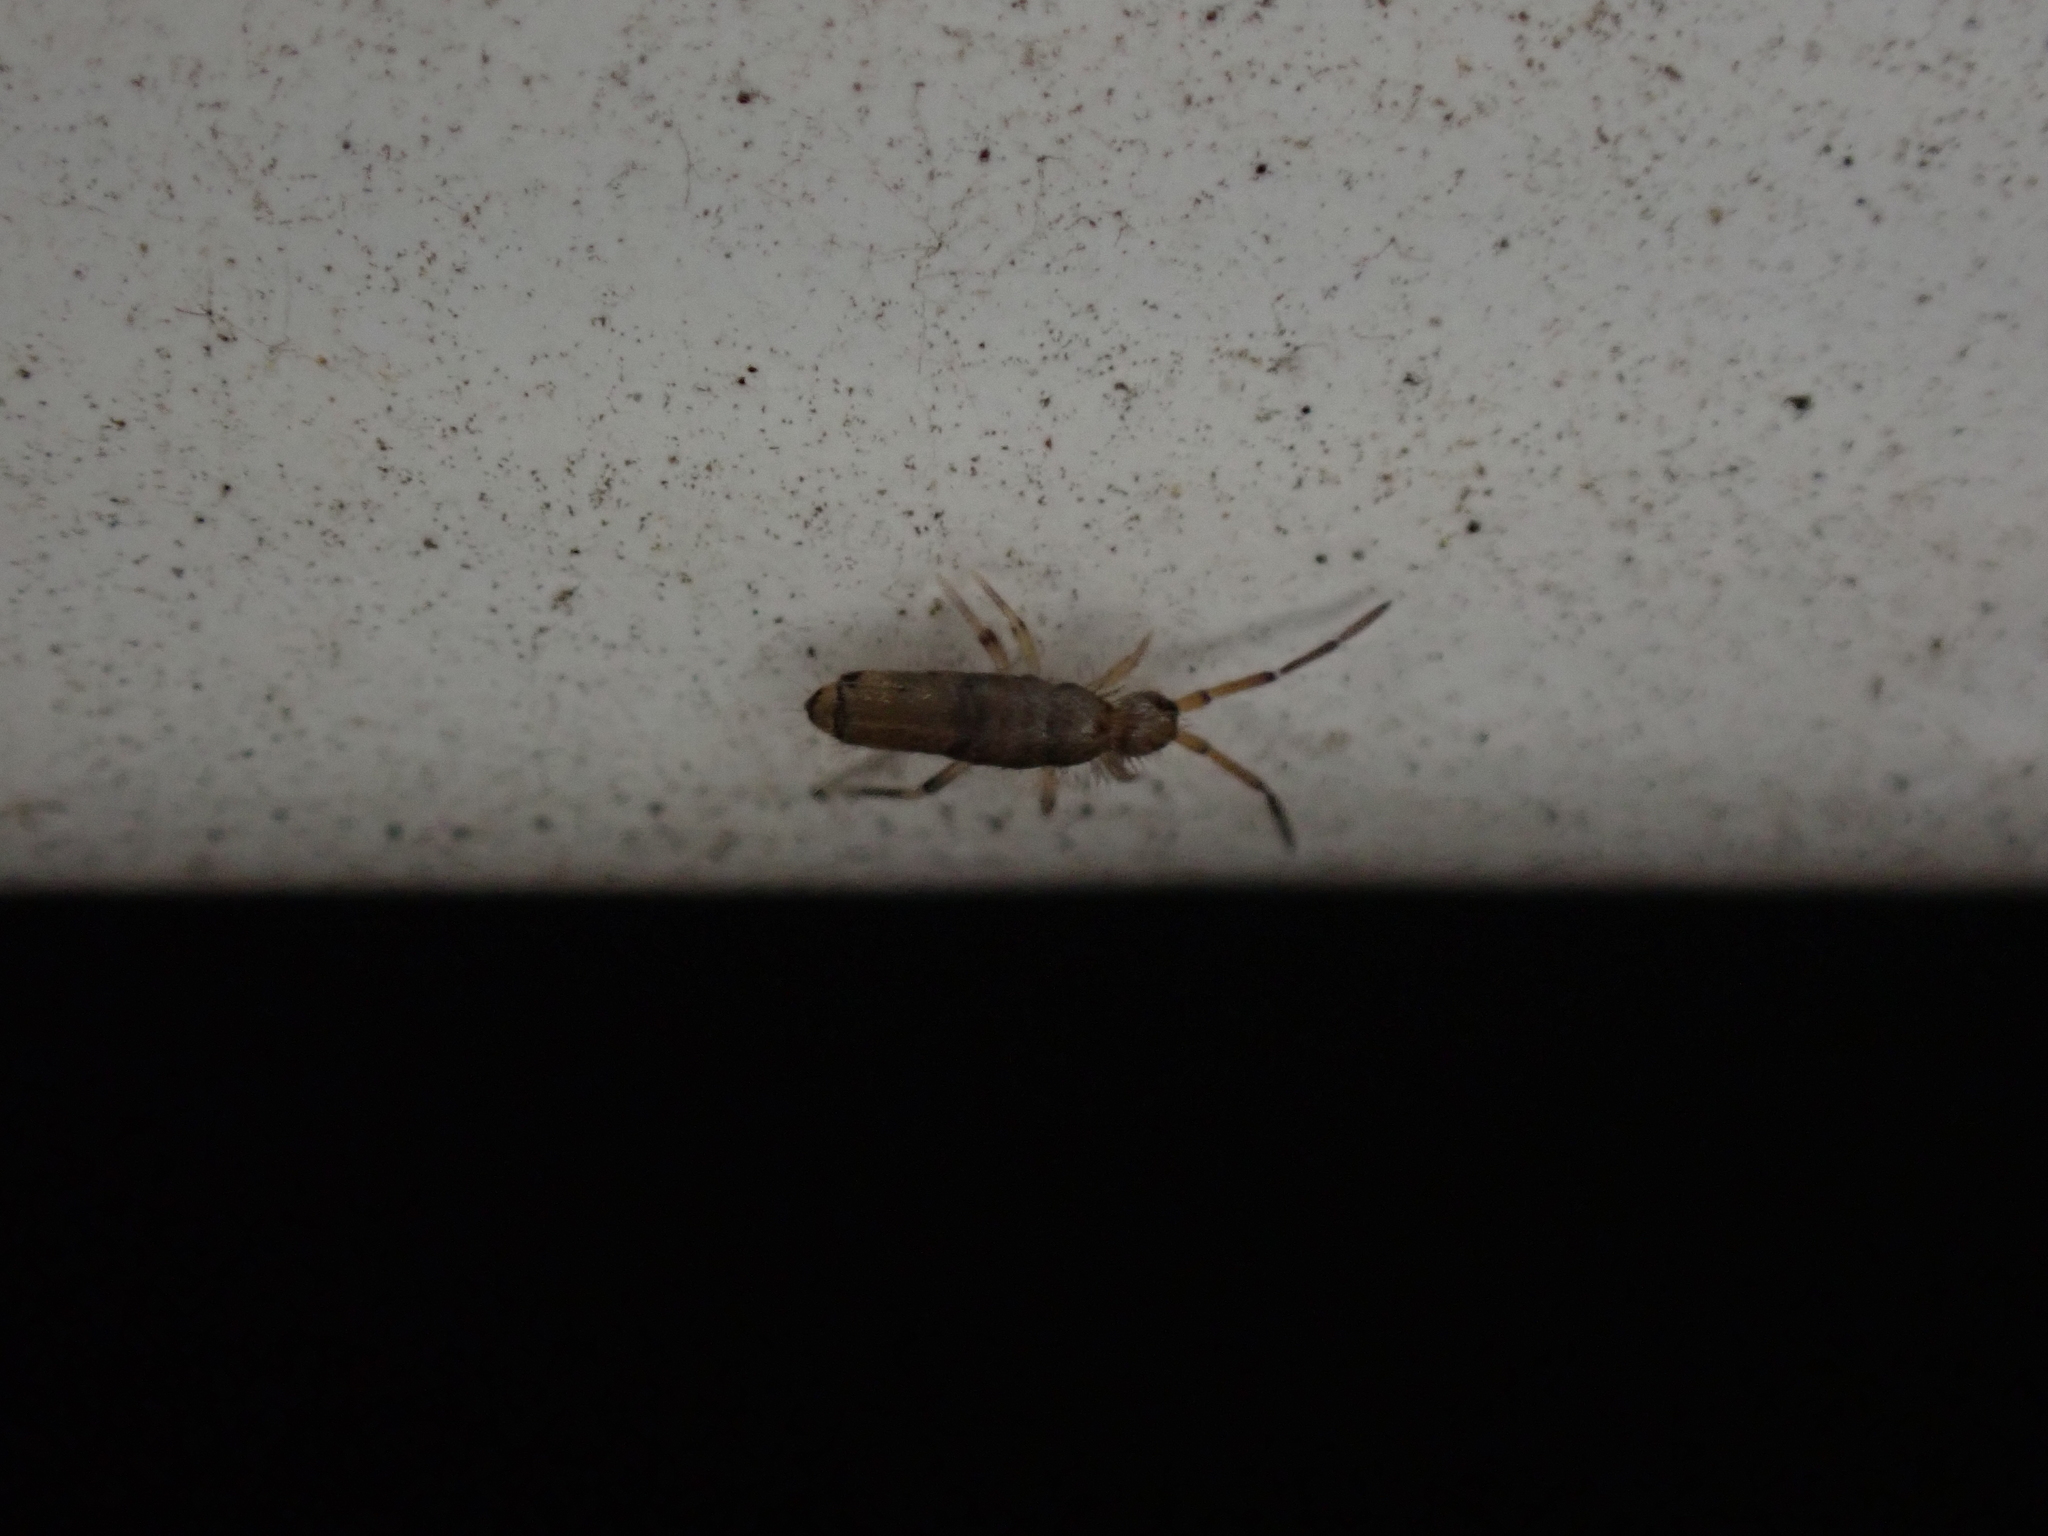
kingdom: Animalia
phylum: Arthropoda
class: Collembola
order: Entomobryomorpha
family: Entomobryidae
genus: Willowsia
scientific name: Willowsia nigromaculata
